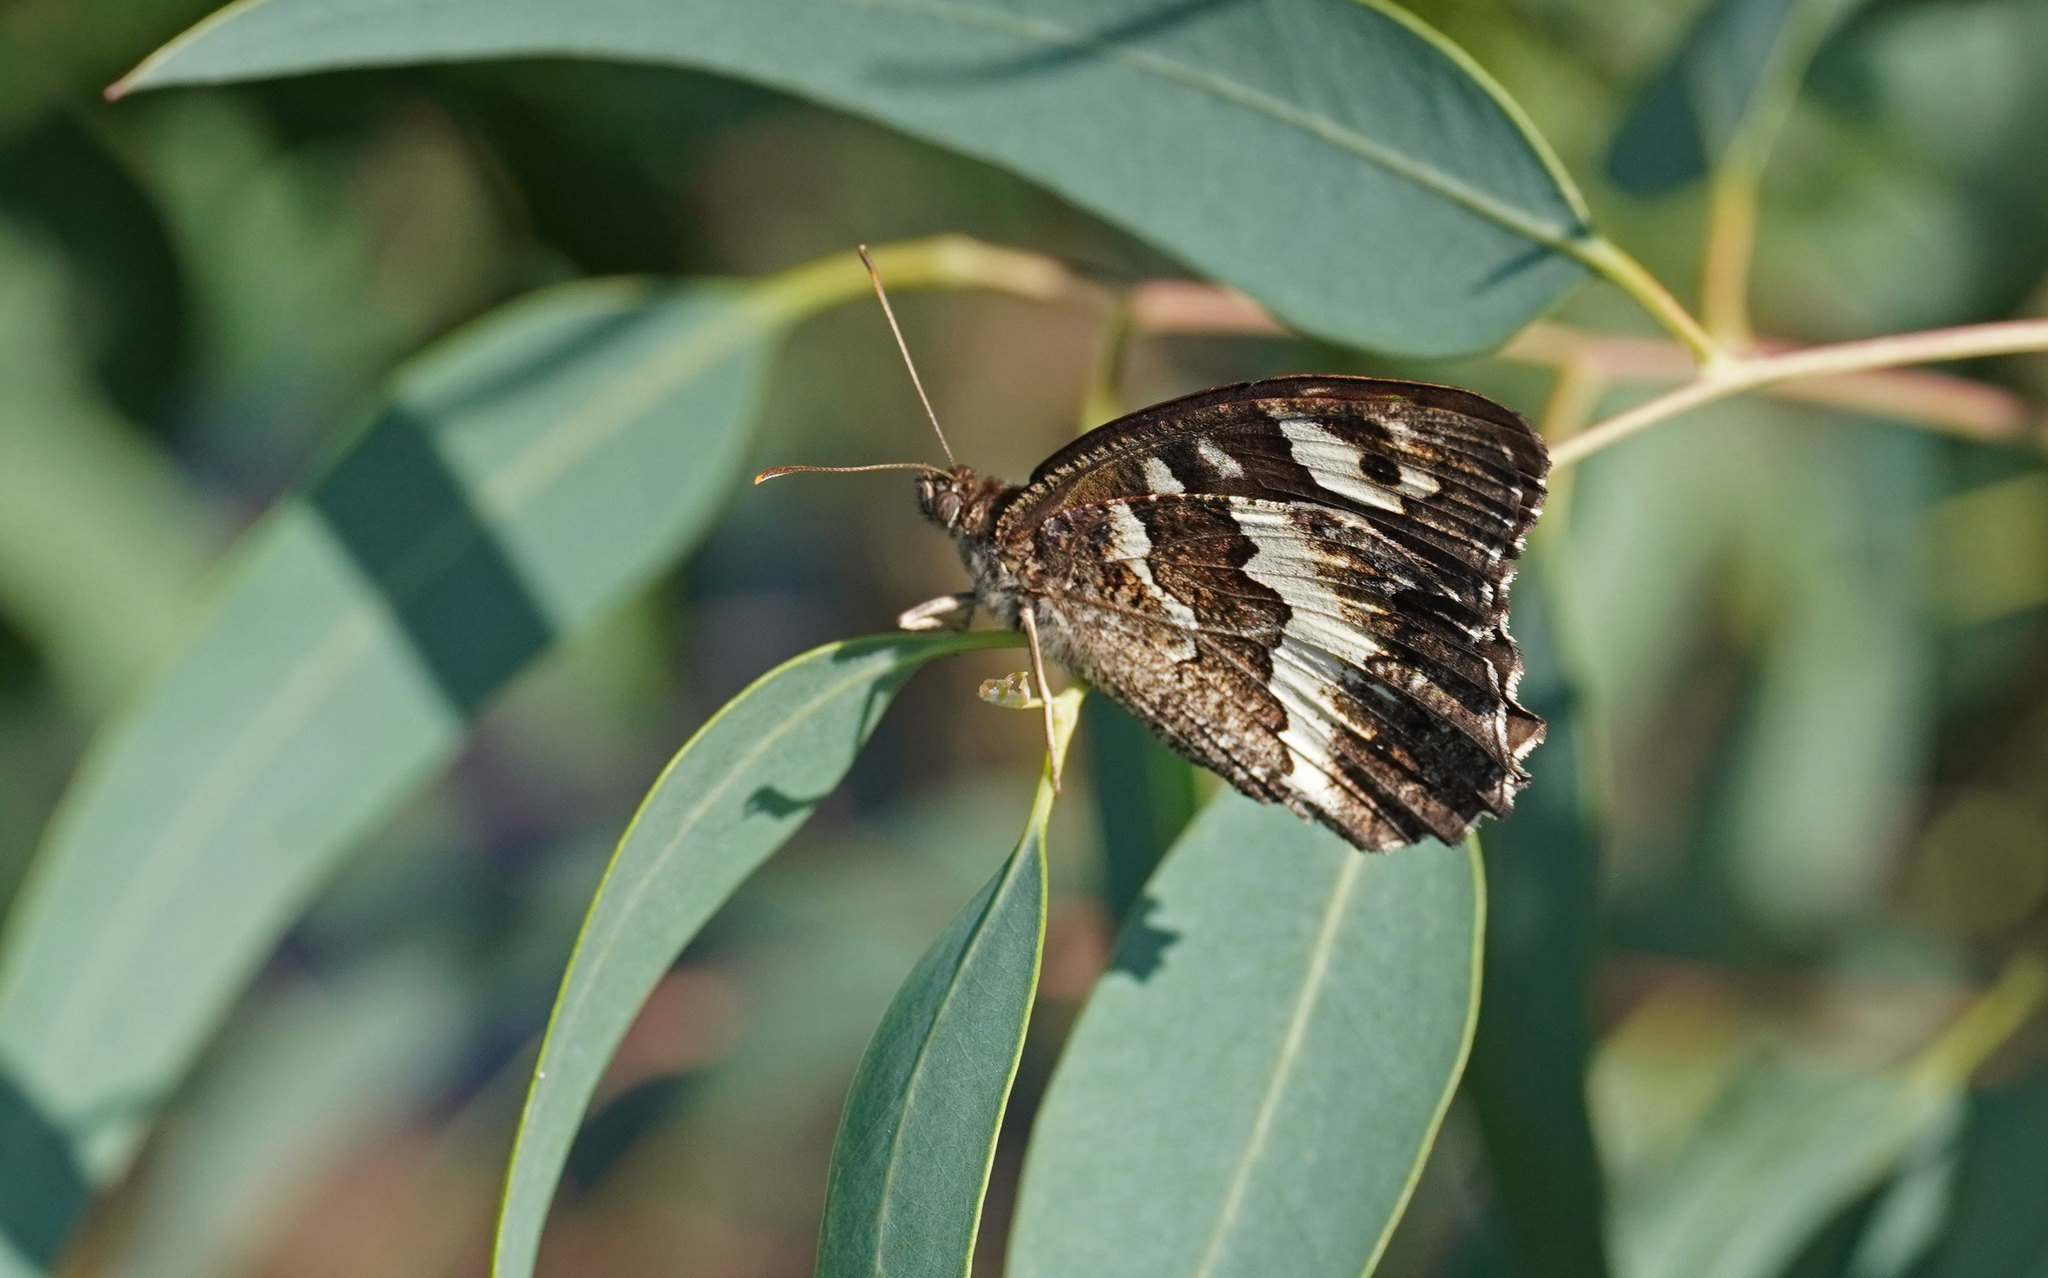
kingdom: Animalia
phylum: Arthropoda
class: Insecta
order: Lepidoptera
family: Lycaenidae
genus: Loweia
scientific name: Loweia tityrus
